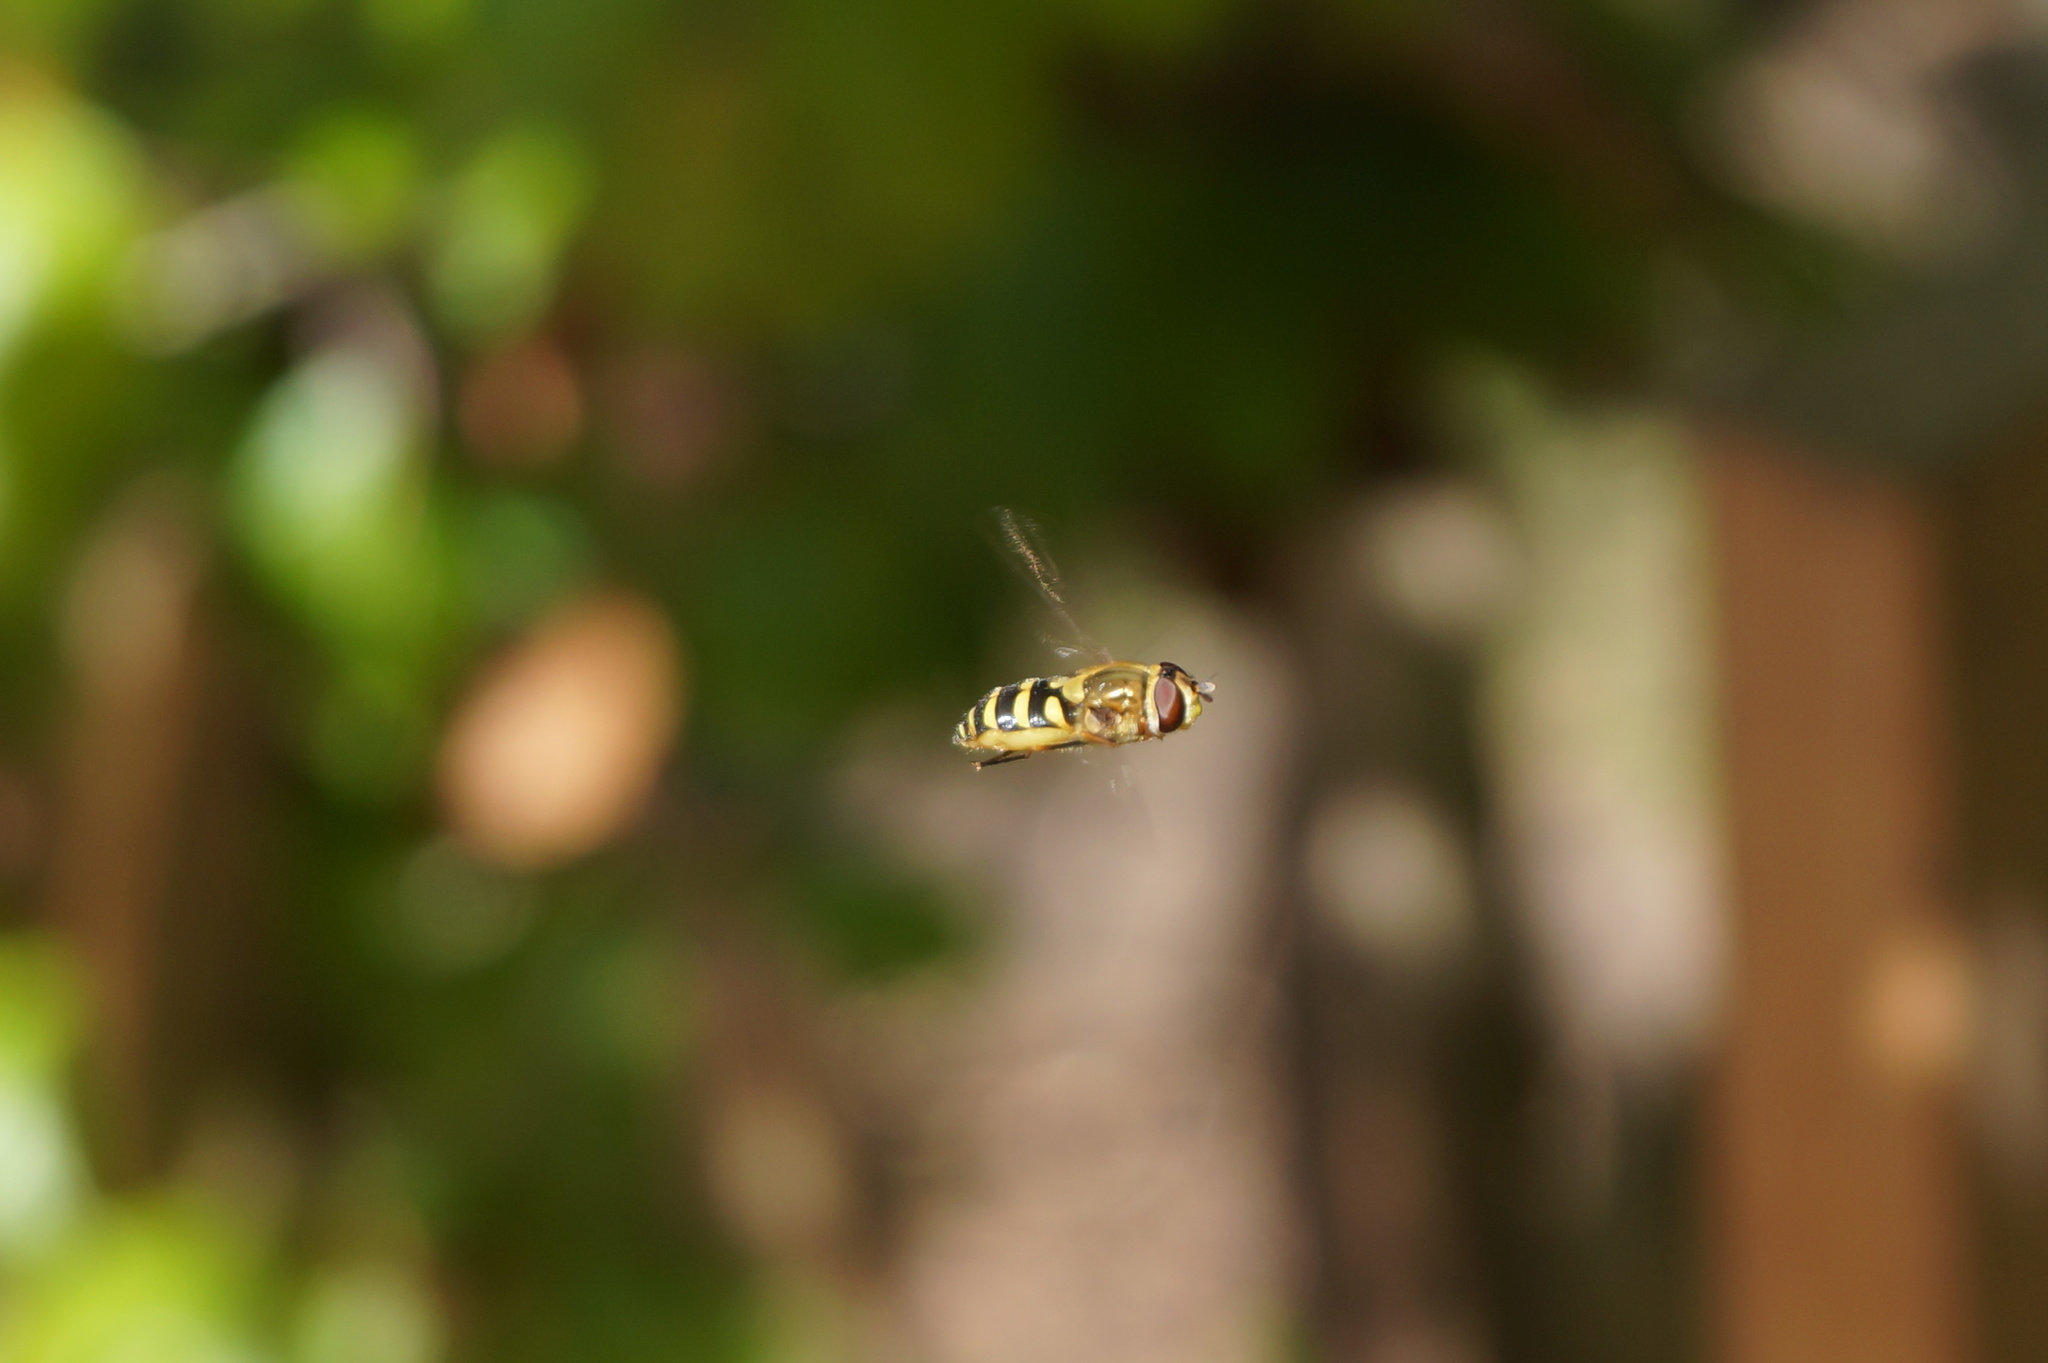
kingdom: Animalia
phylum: Arthropoda
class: Insecta
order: Diptera
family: Syrphidae
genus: Syrphus
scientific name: Syrphus
